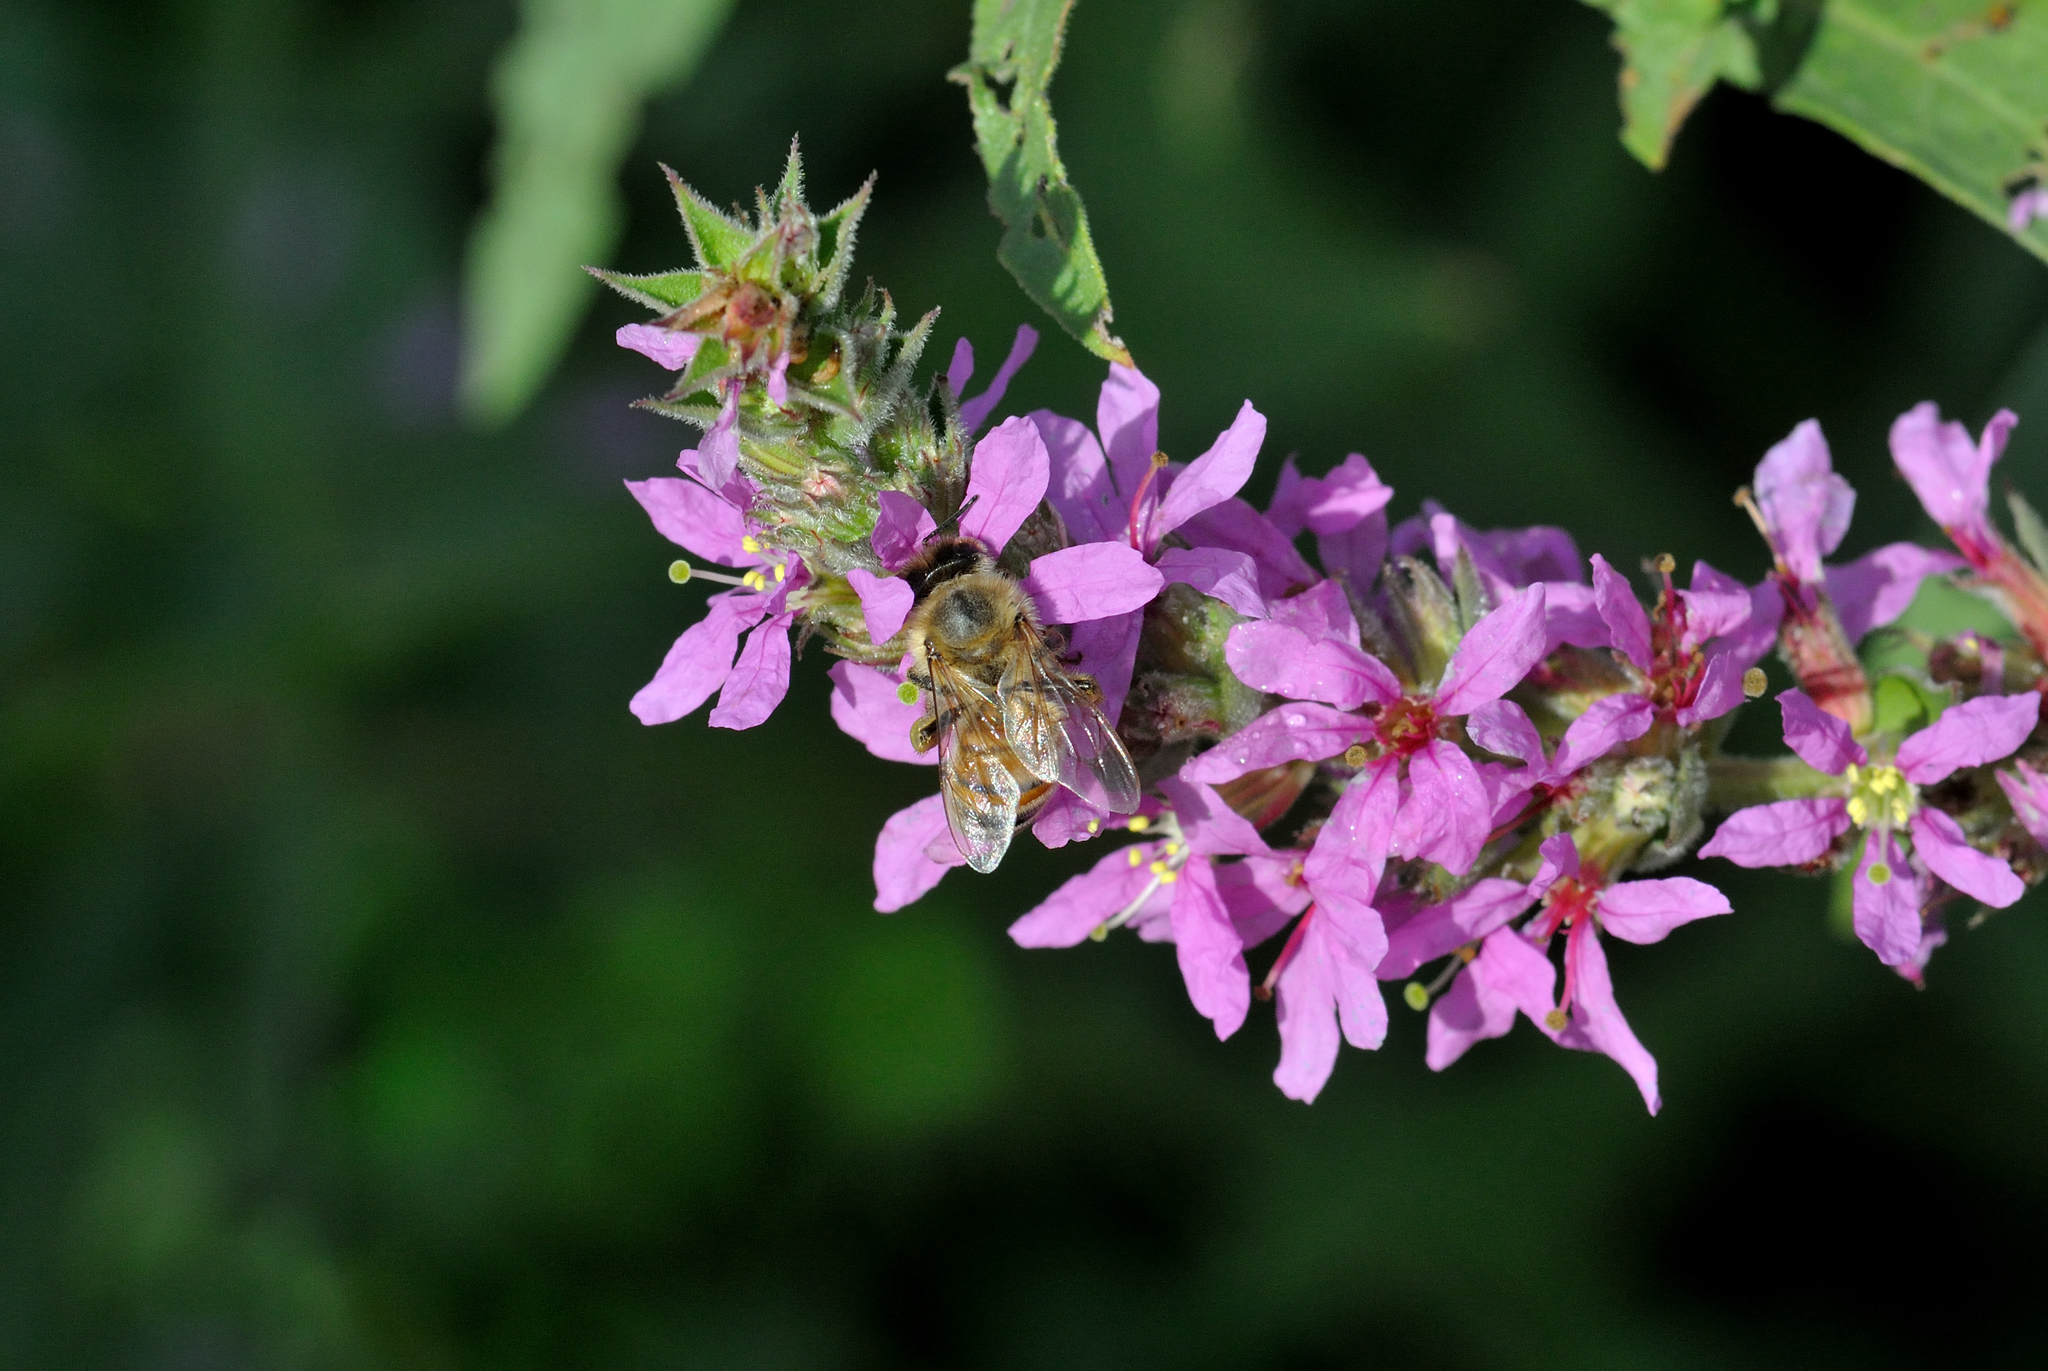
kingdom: Animalia
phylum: Arthropoda
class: Insecta
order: Hymenoptera
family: Apidae
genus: Apis
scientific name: Apis mellifera
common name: Honey bee
